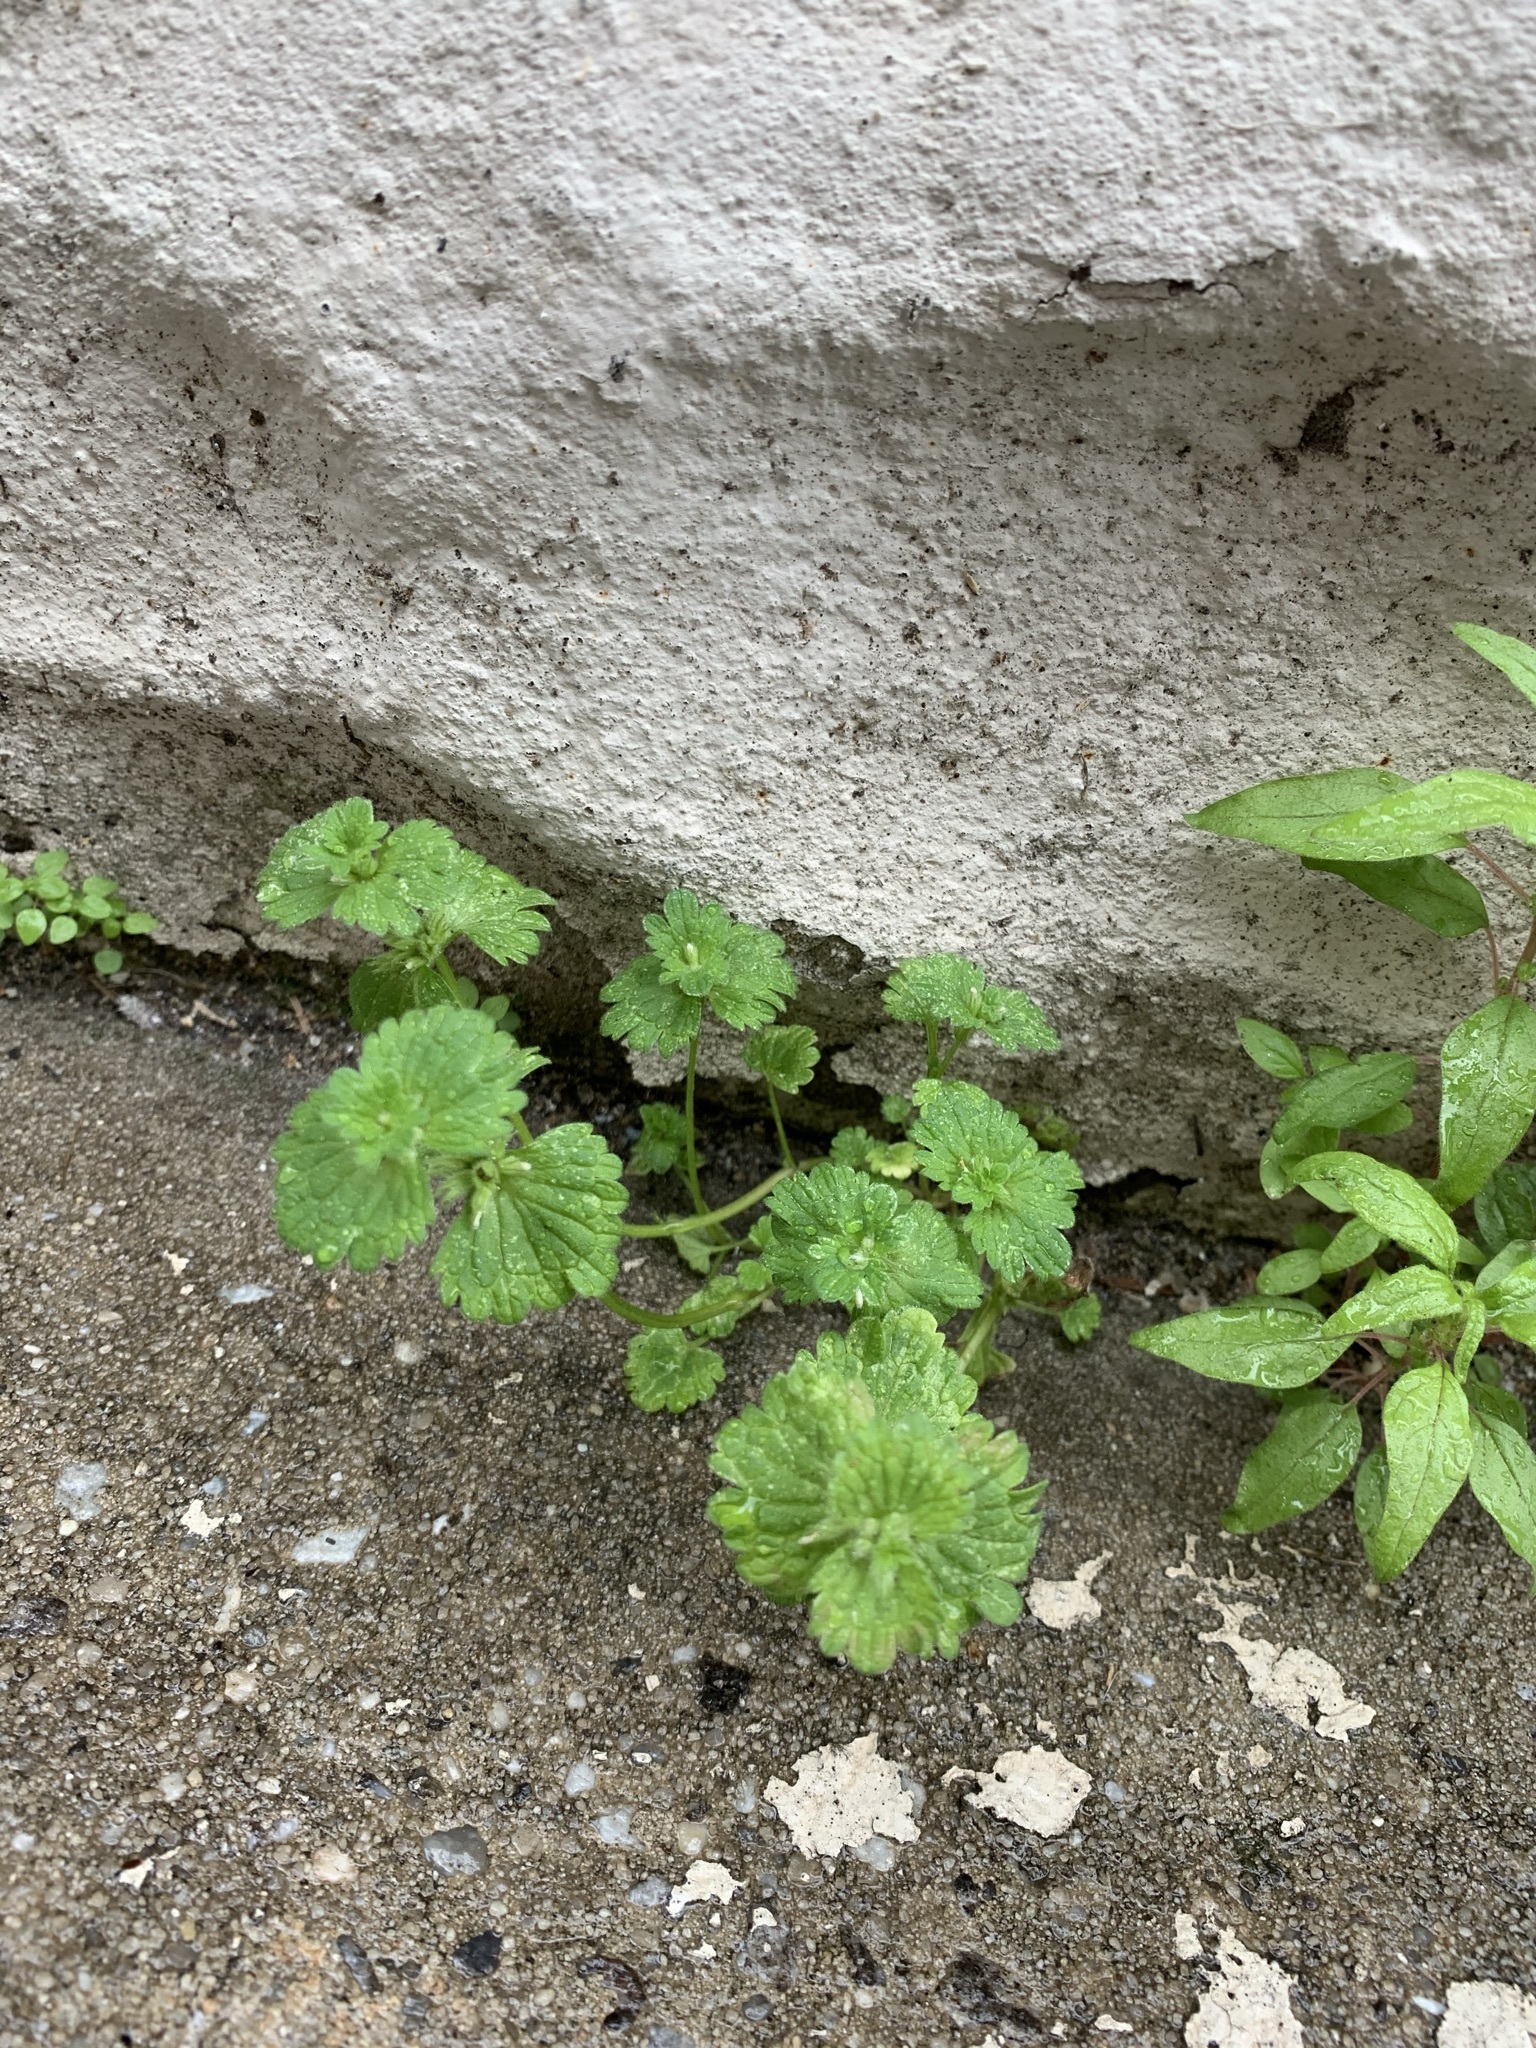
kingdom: Plantae
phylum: Tracheophyta
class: Magnoliopsida
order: Lamiales
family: Lamiaceae
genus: Lamium
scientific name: Lamium amplexicaule
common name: Henbit dead-nettle
